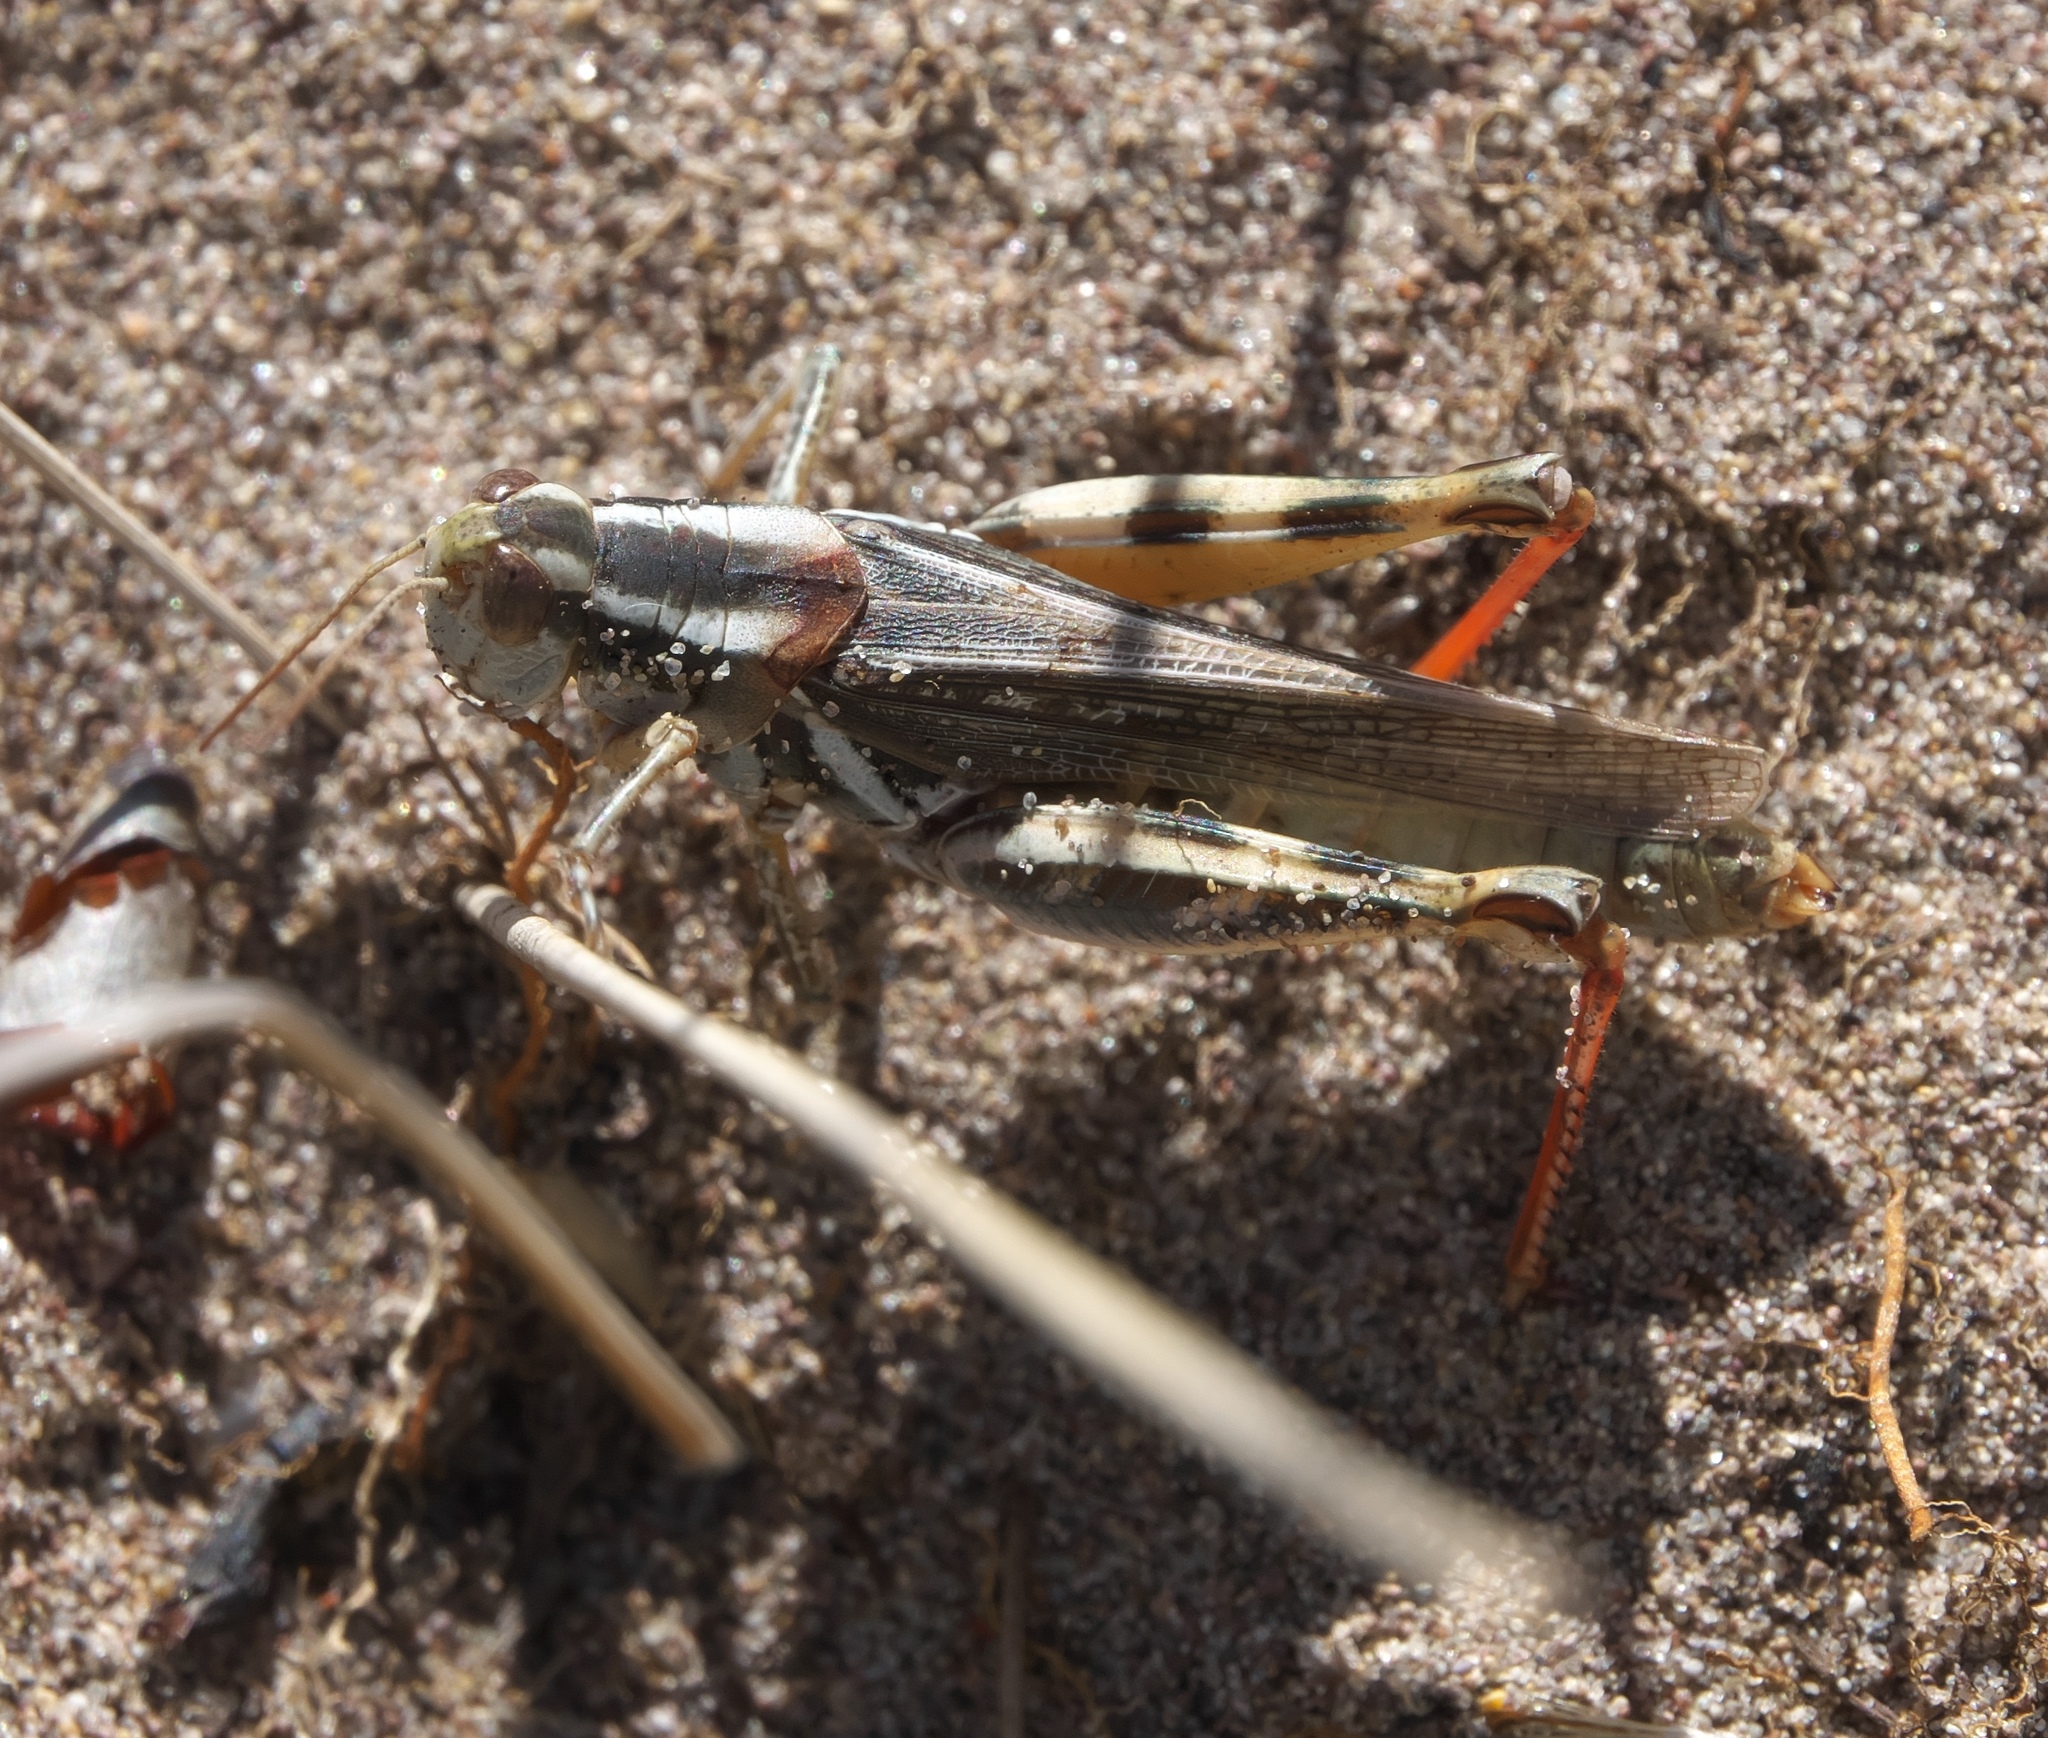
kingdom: Animalia
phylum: Arthropoda
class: Insecta
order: Orthoptera
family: Acrididae
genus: Melanoplus
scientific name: Melanoplus foedus
